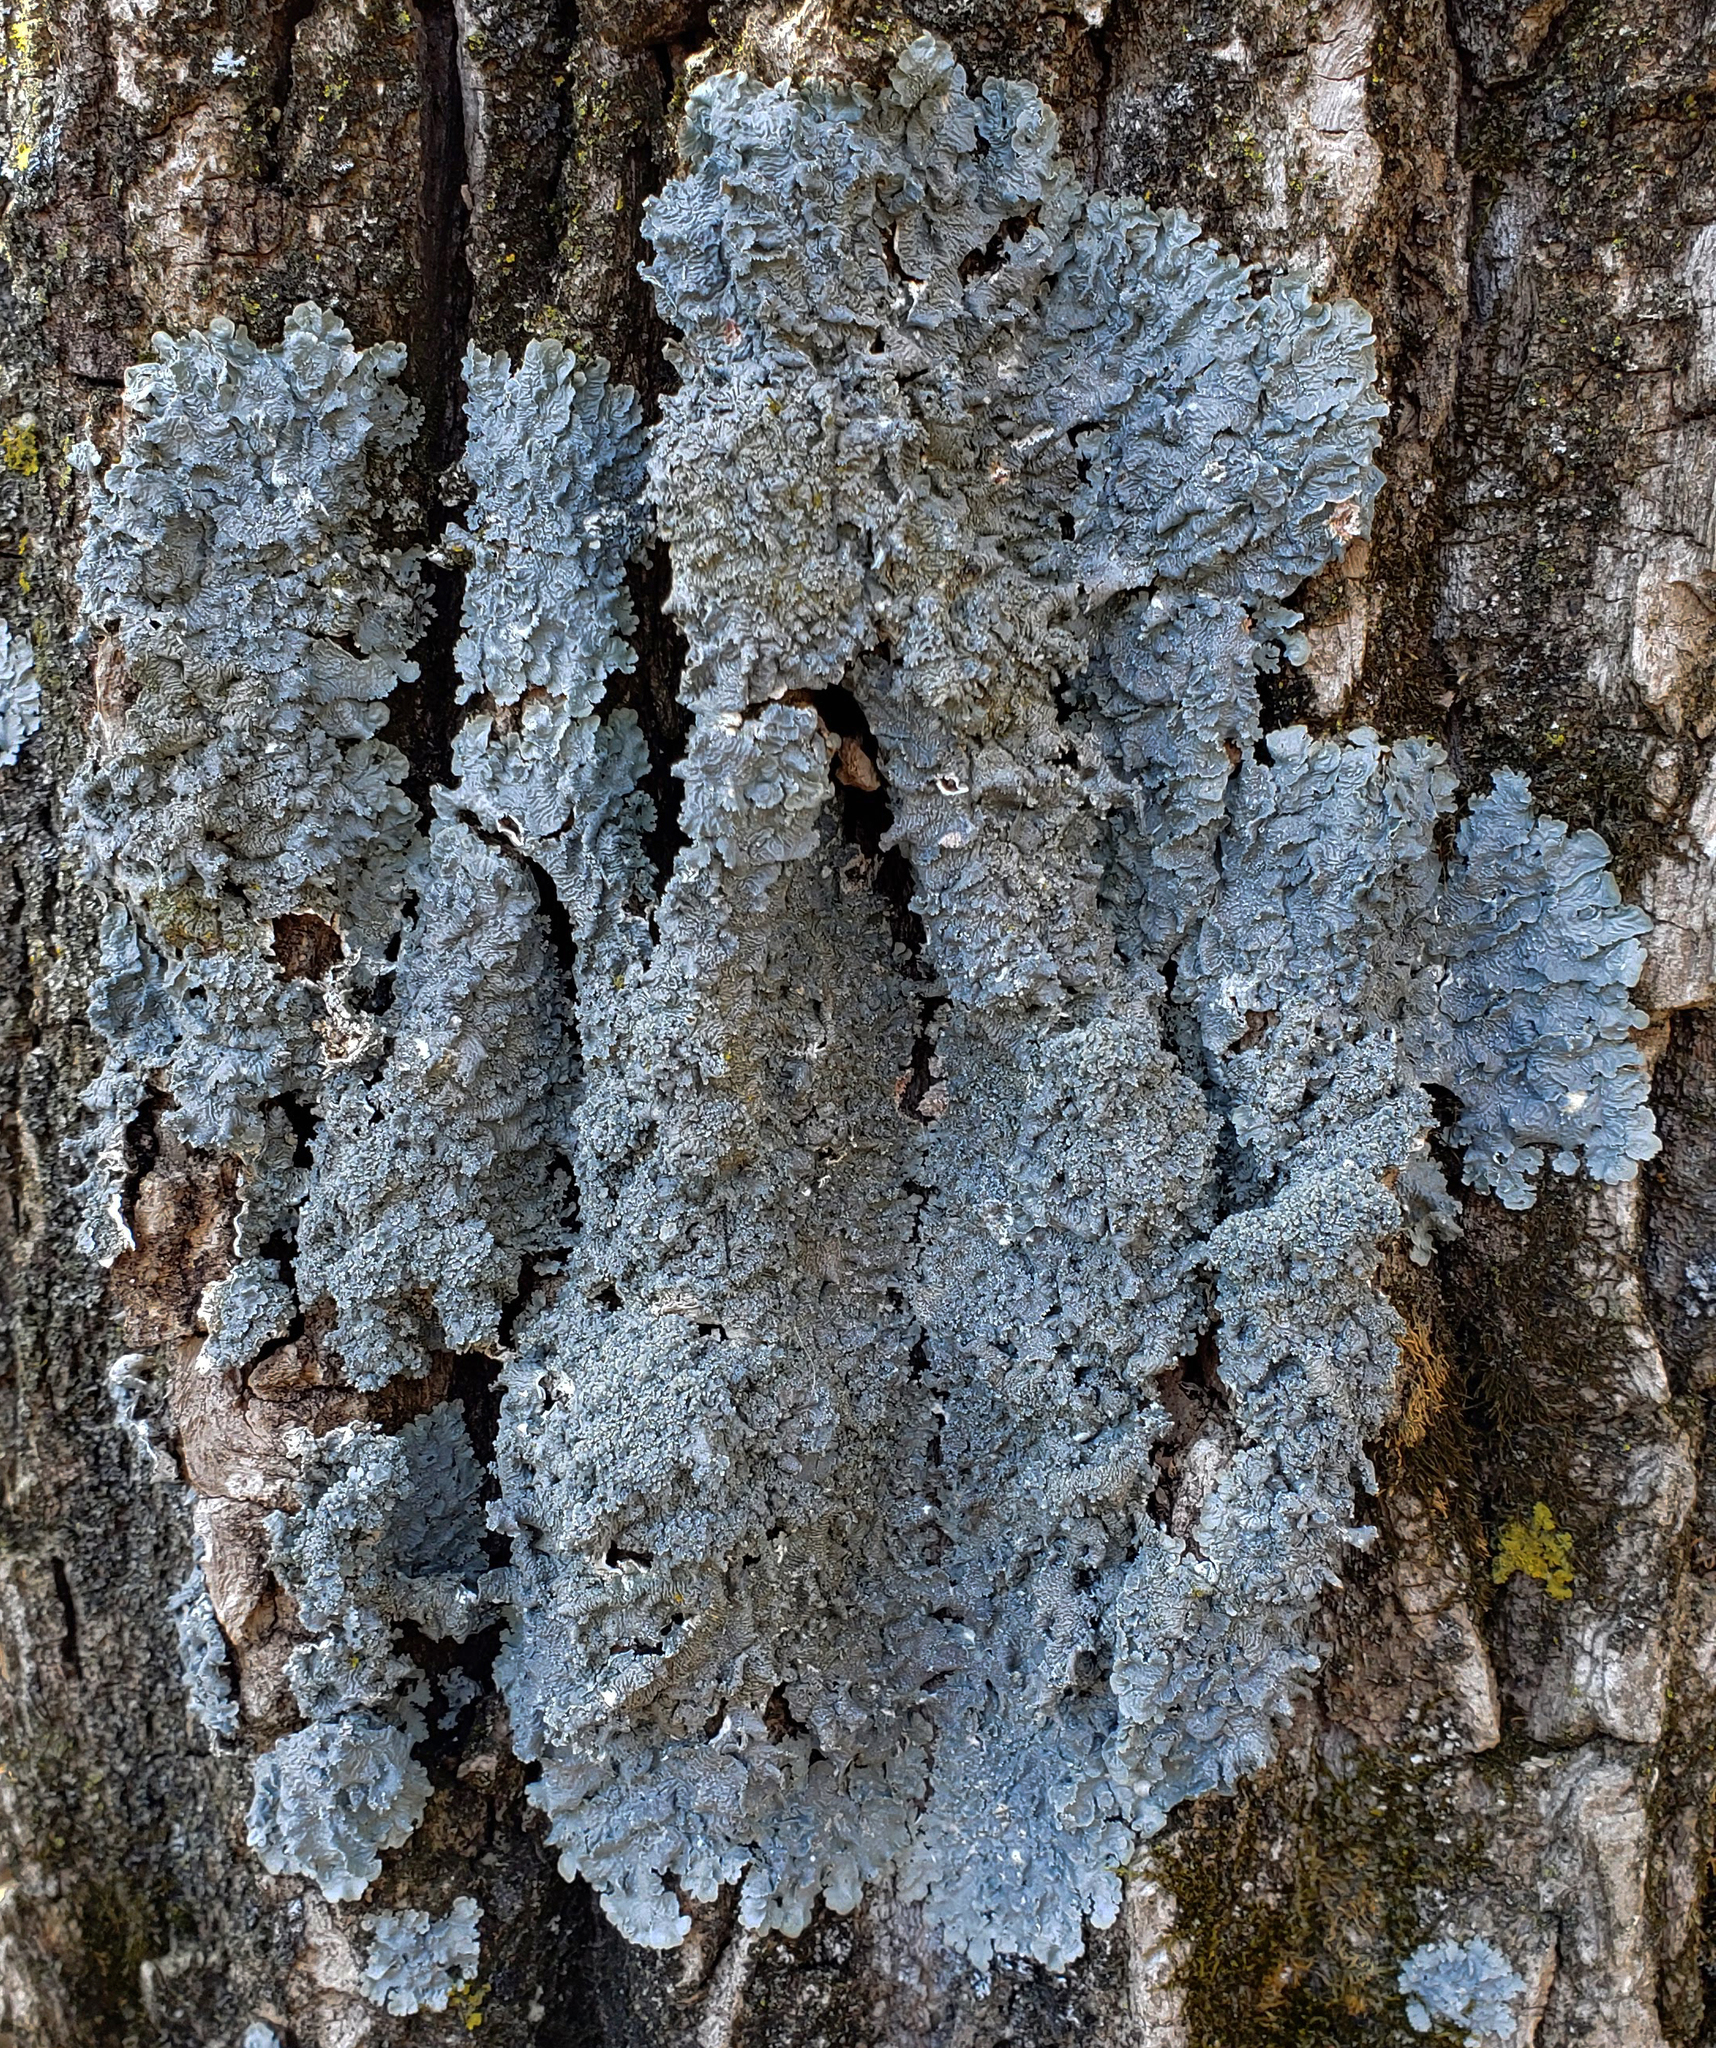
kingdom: Fungi
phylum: Ascomycota
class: Lecanoromycetes
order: Lecanorales
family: Parmeliaceae
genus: Punctelia
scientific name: Punctelia bolliana
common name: Eastern speckled shield lichen
